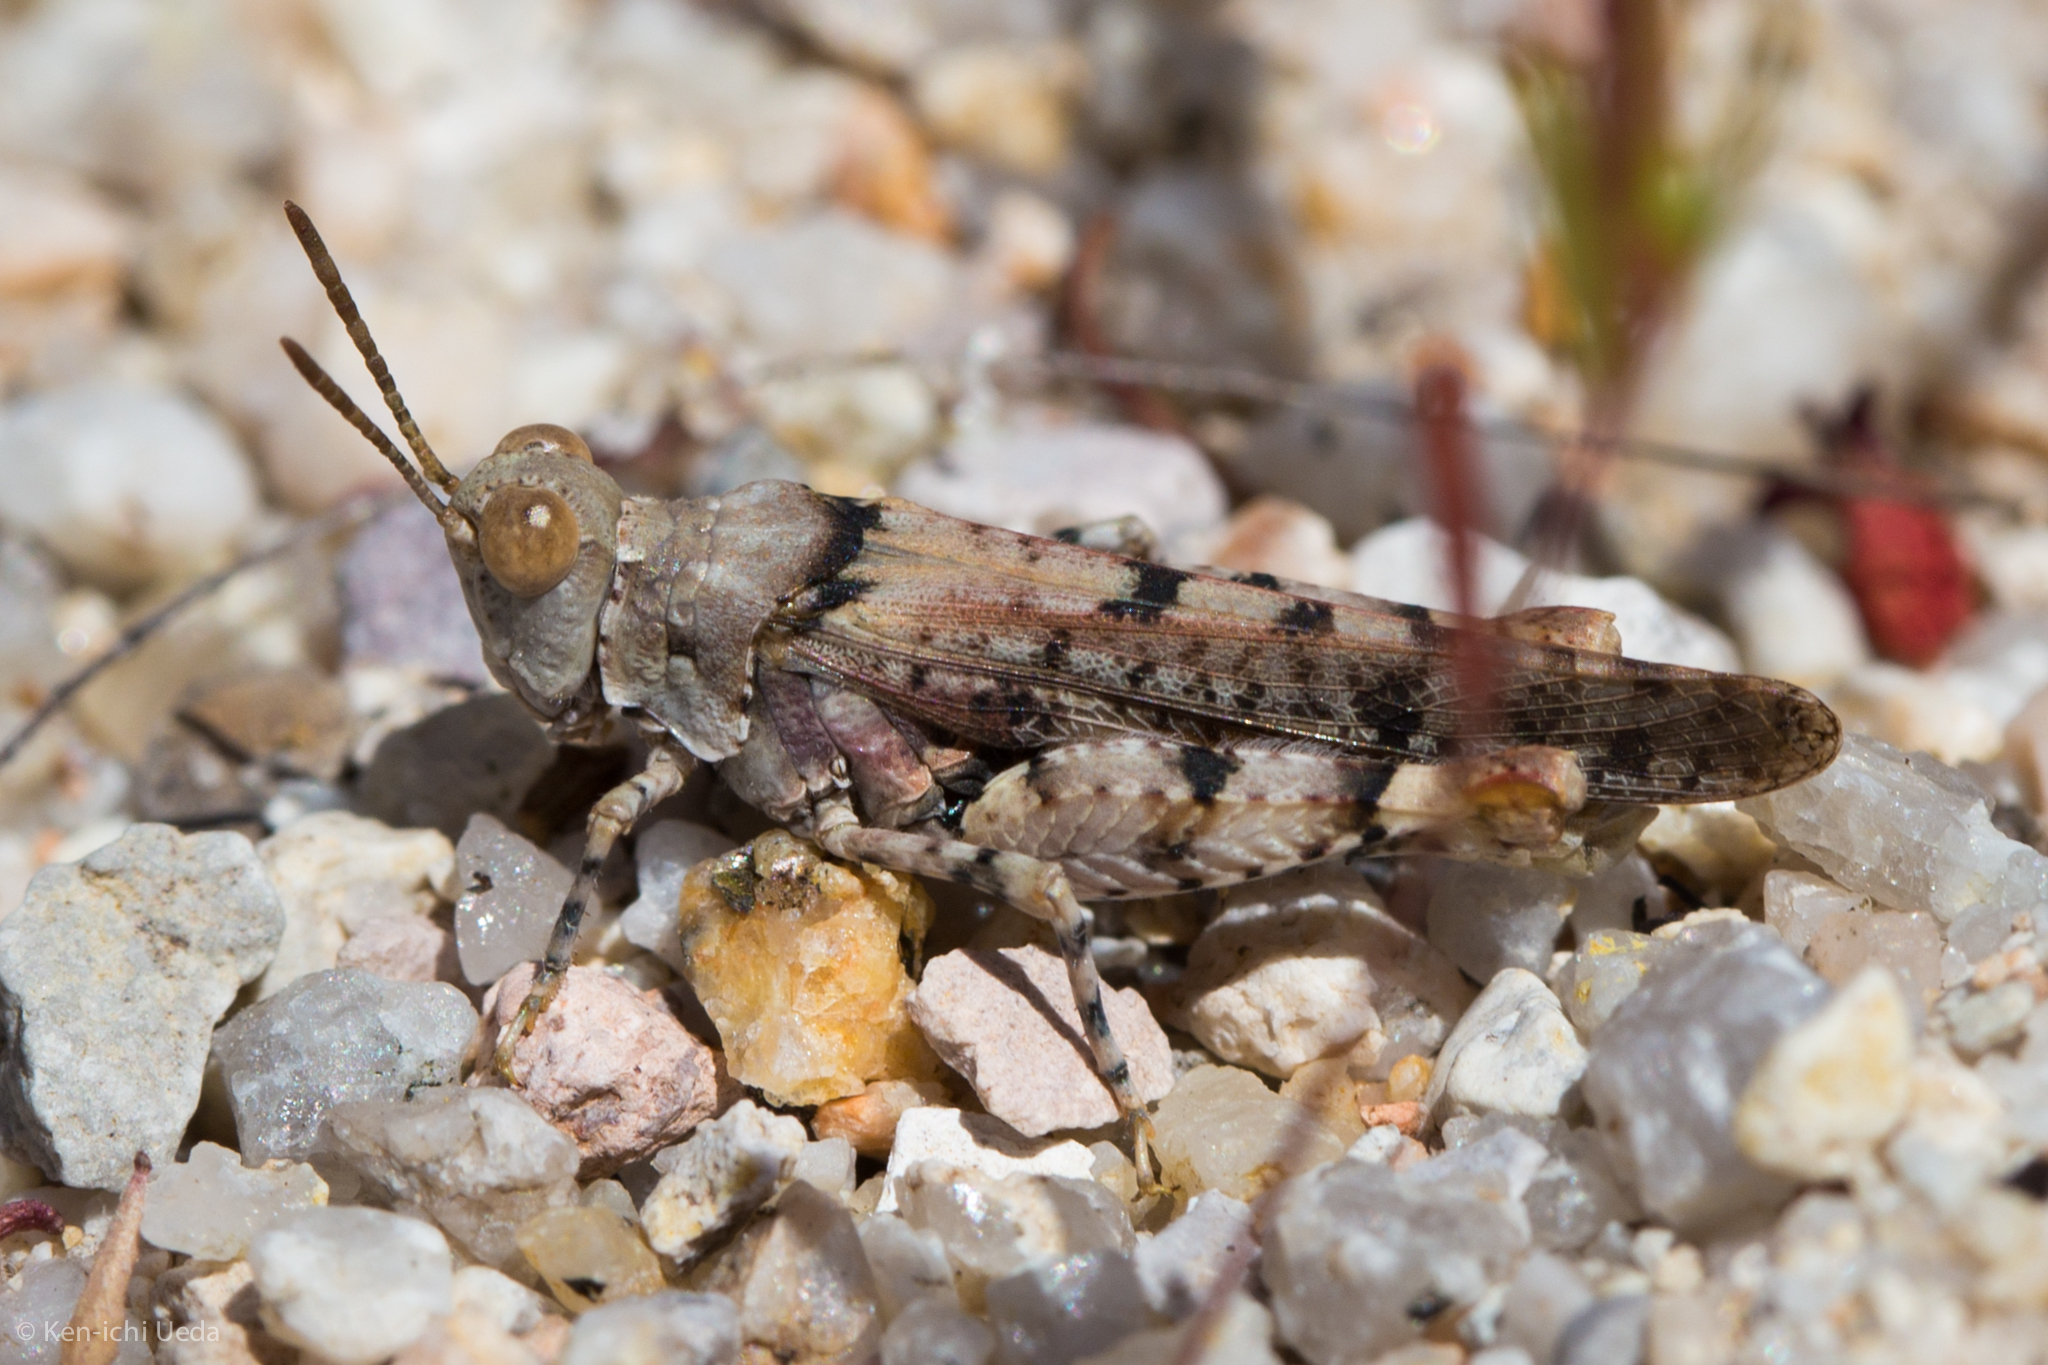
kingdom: Animalia
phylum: Arthropoda
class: Insecta
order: Orthoptera
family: Acrididae
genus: Cibolacris
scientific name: Cibolacris parviceps
